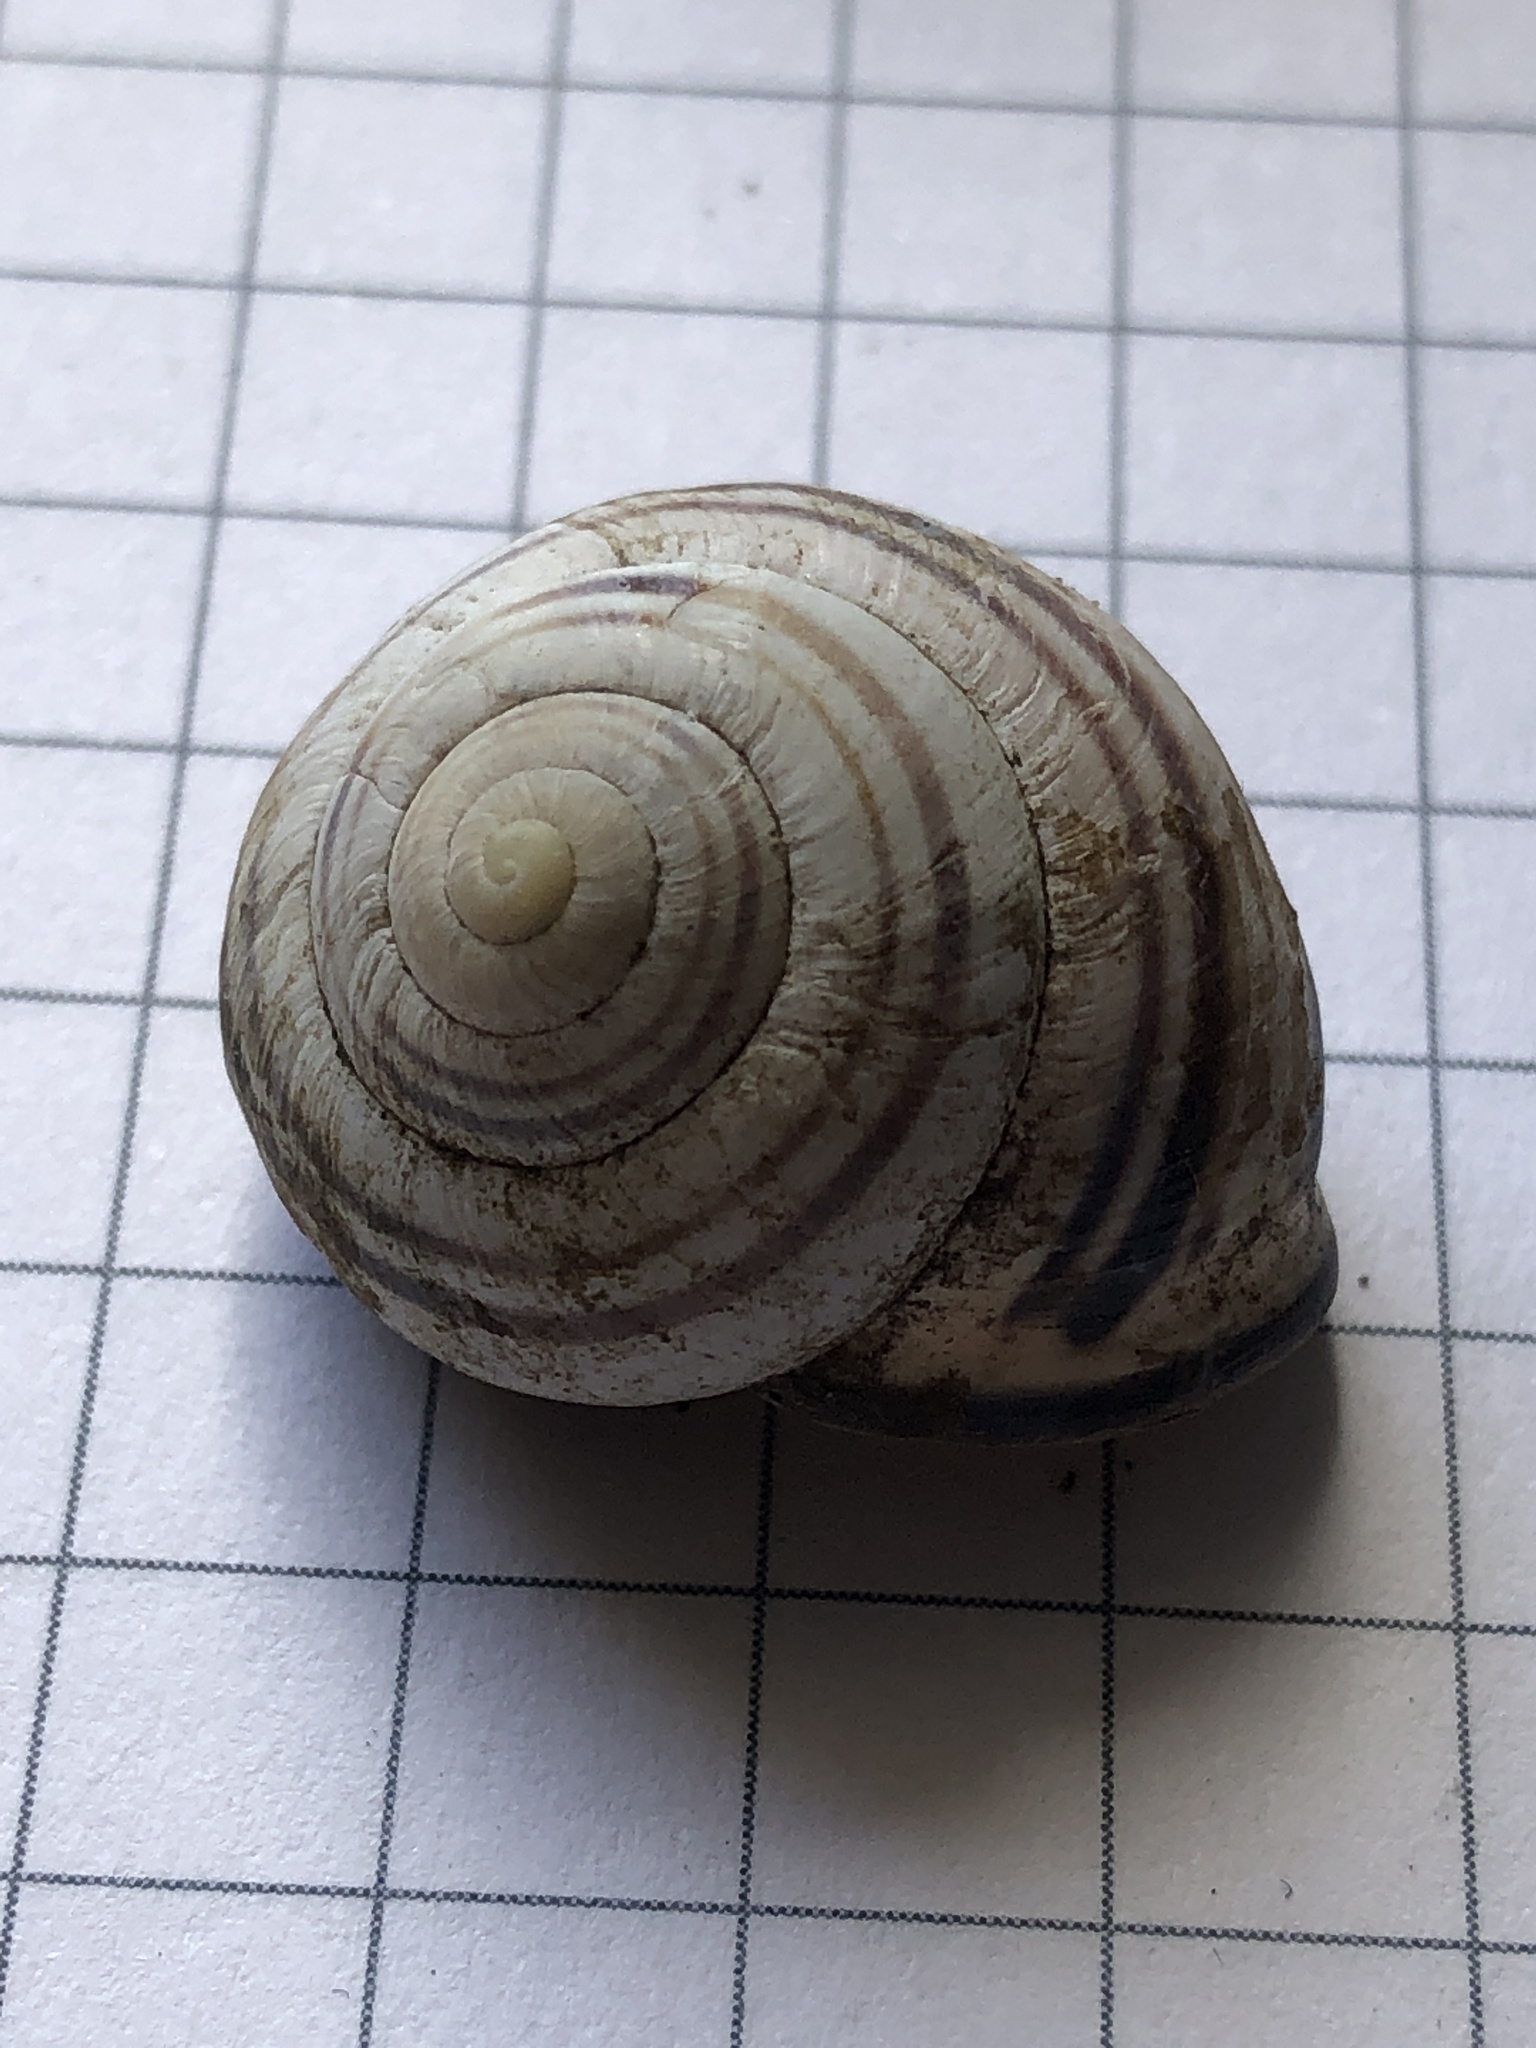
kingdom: Animalia
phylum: Mollusca
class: Gastropoda
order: Stylommatophora
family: Helicidae
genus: Cepaea
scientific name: Cepaea nemoralis
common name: Grovesnail
